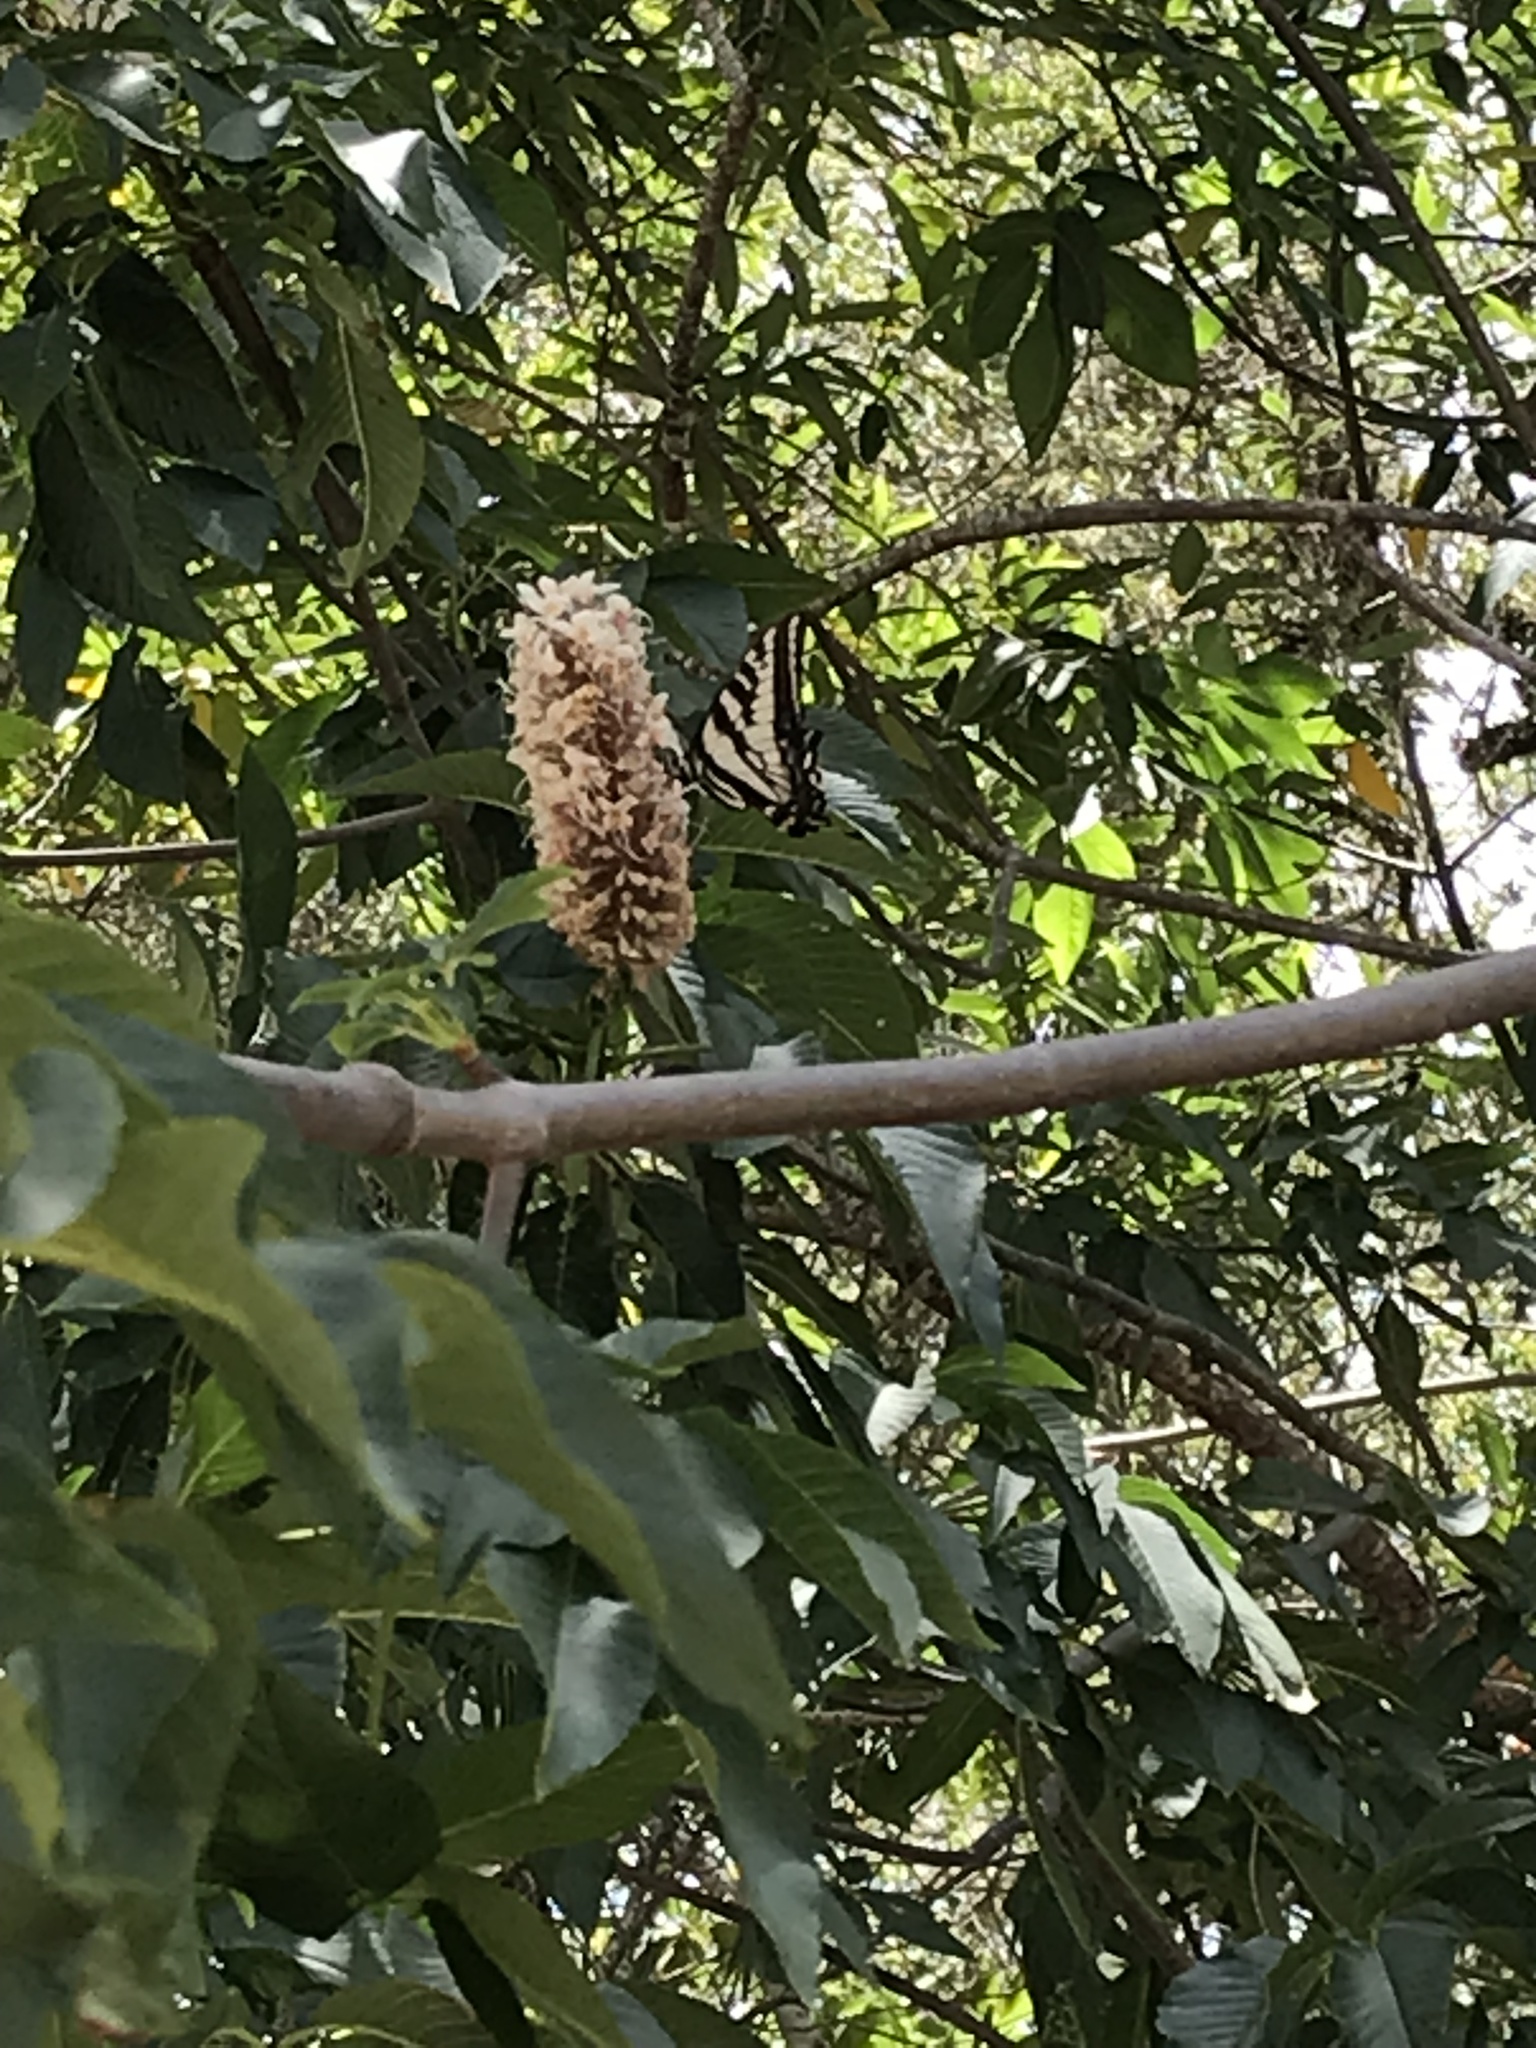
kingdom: Animalia
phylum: Arthropoda
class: Insecta
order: Lepidoptera
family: Papilionidae
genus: Papilio
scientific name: Papilio eurymedon
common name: Pale tiger swallowtail
